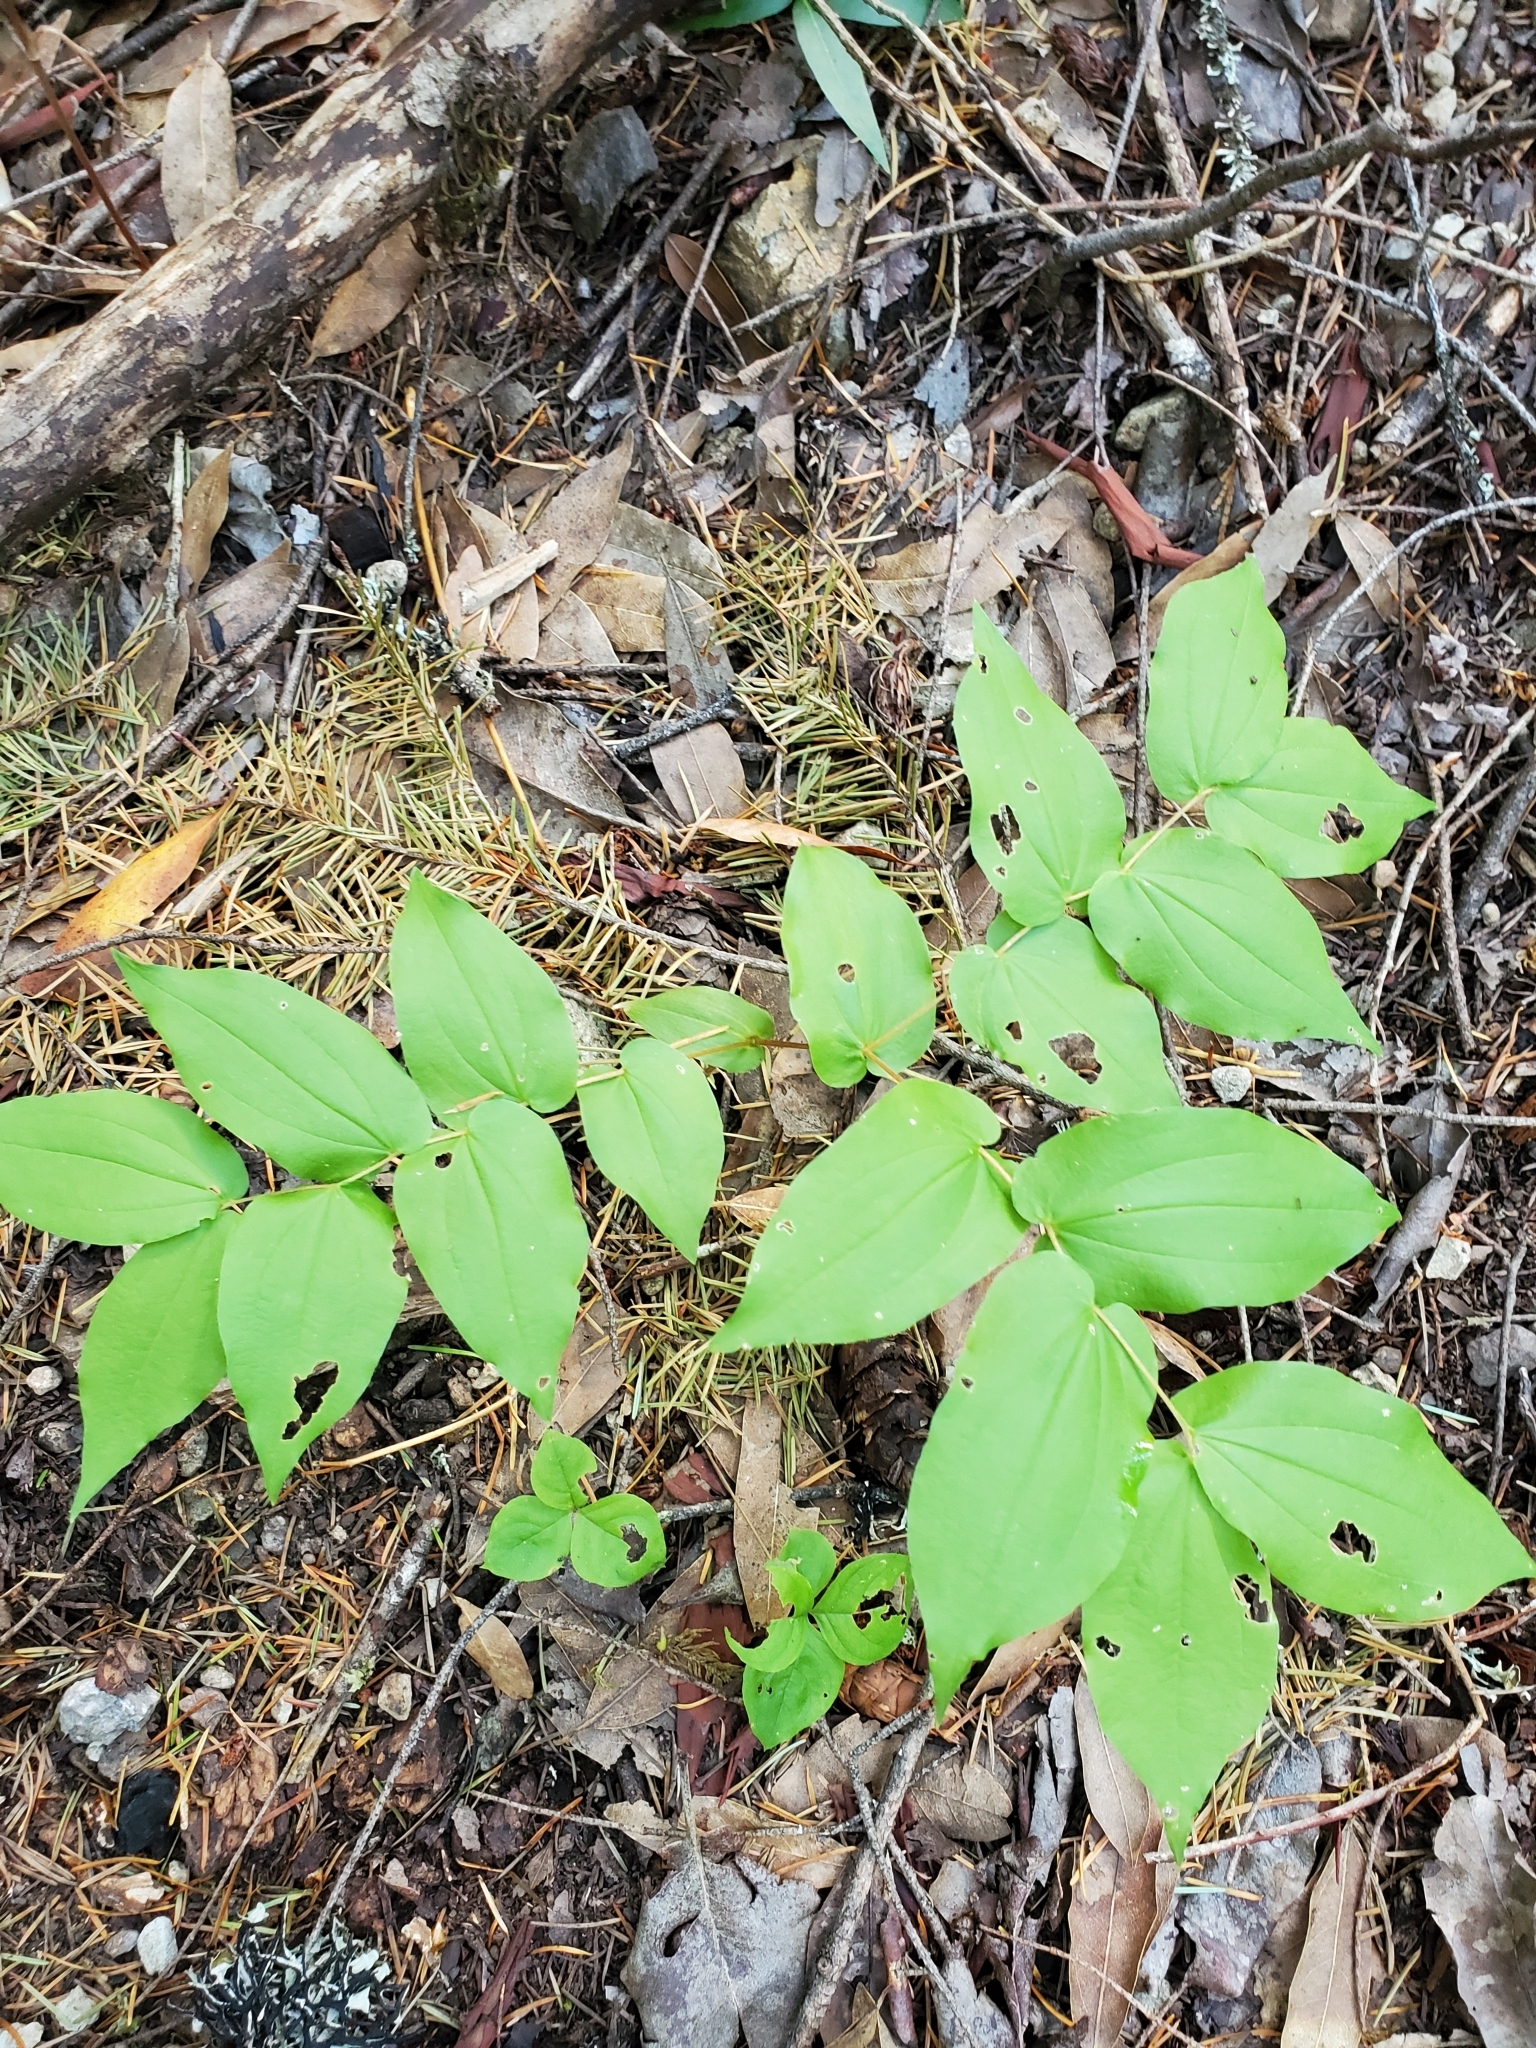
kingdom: Plantae
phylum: Tracheophyta
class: Liliopsida
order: Asparagales
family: Asparagaceae
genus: Maianthemum
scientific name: Maianthemum racemosum
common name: False spikenard
